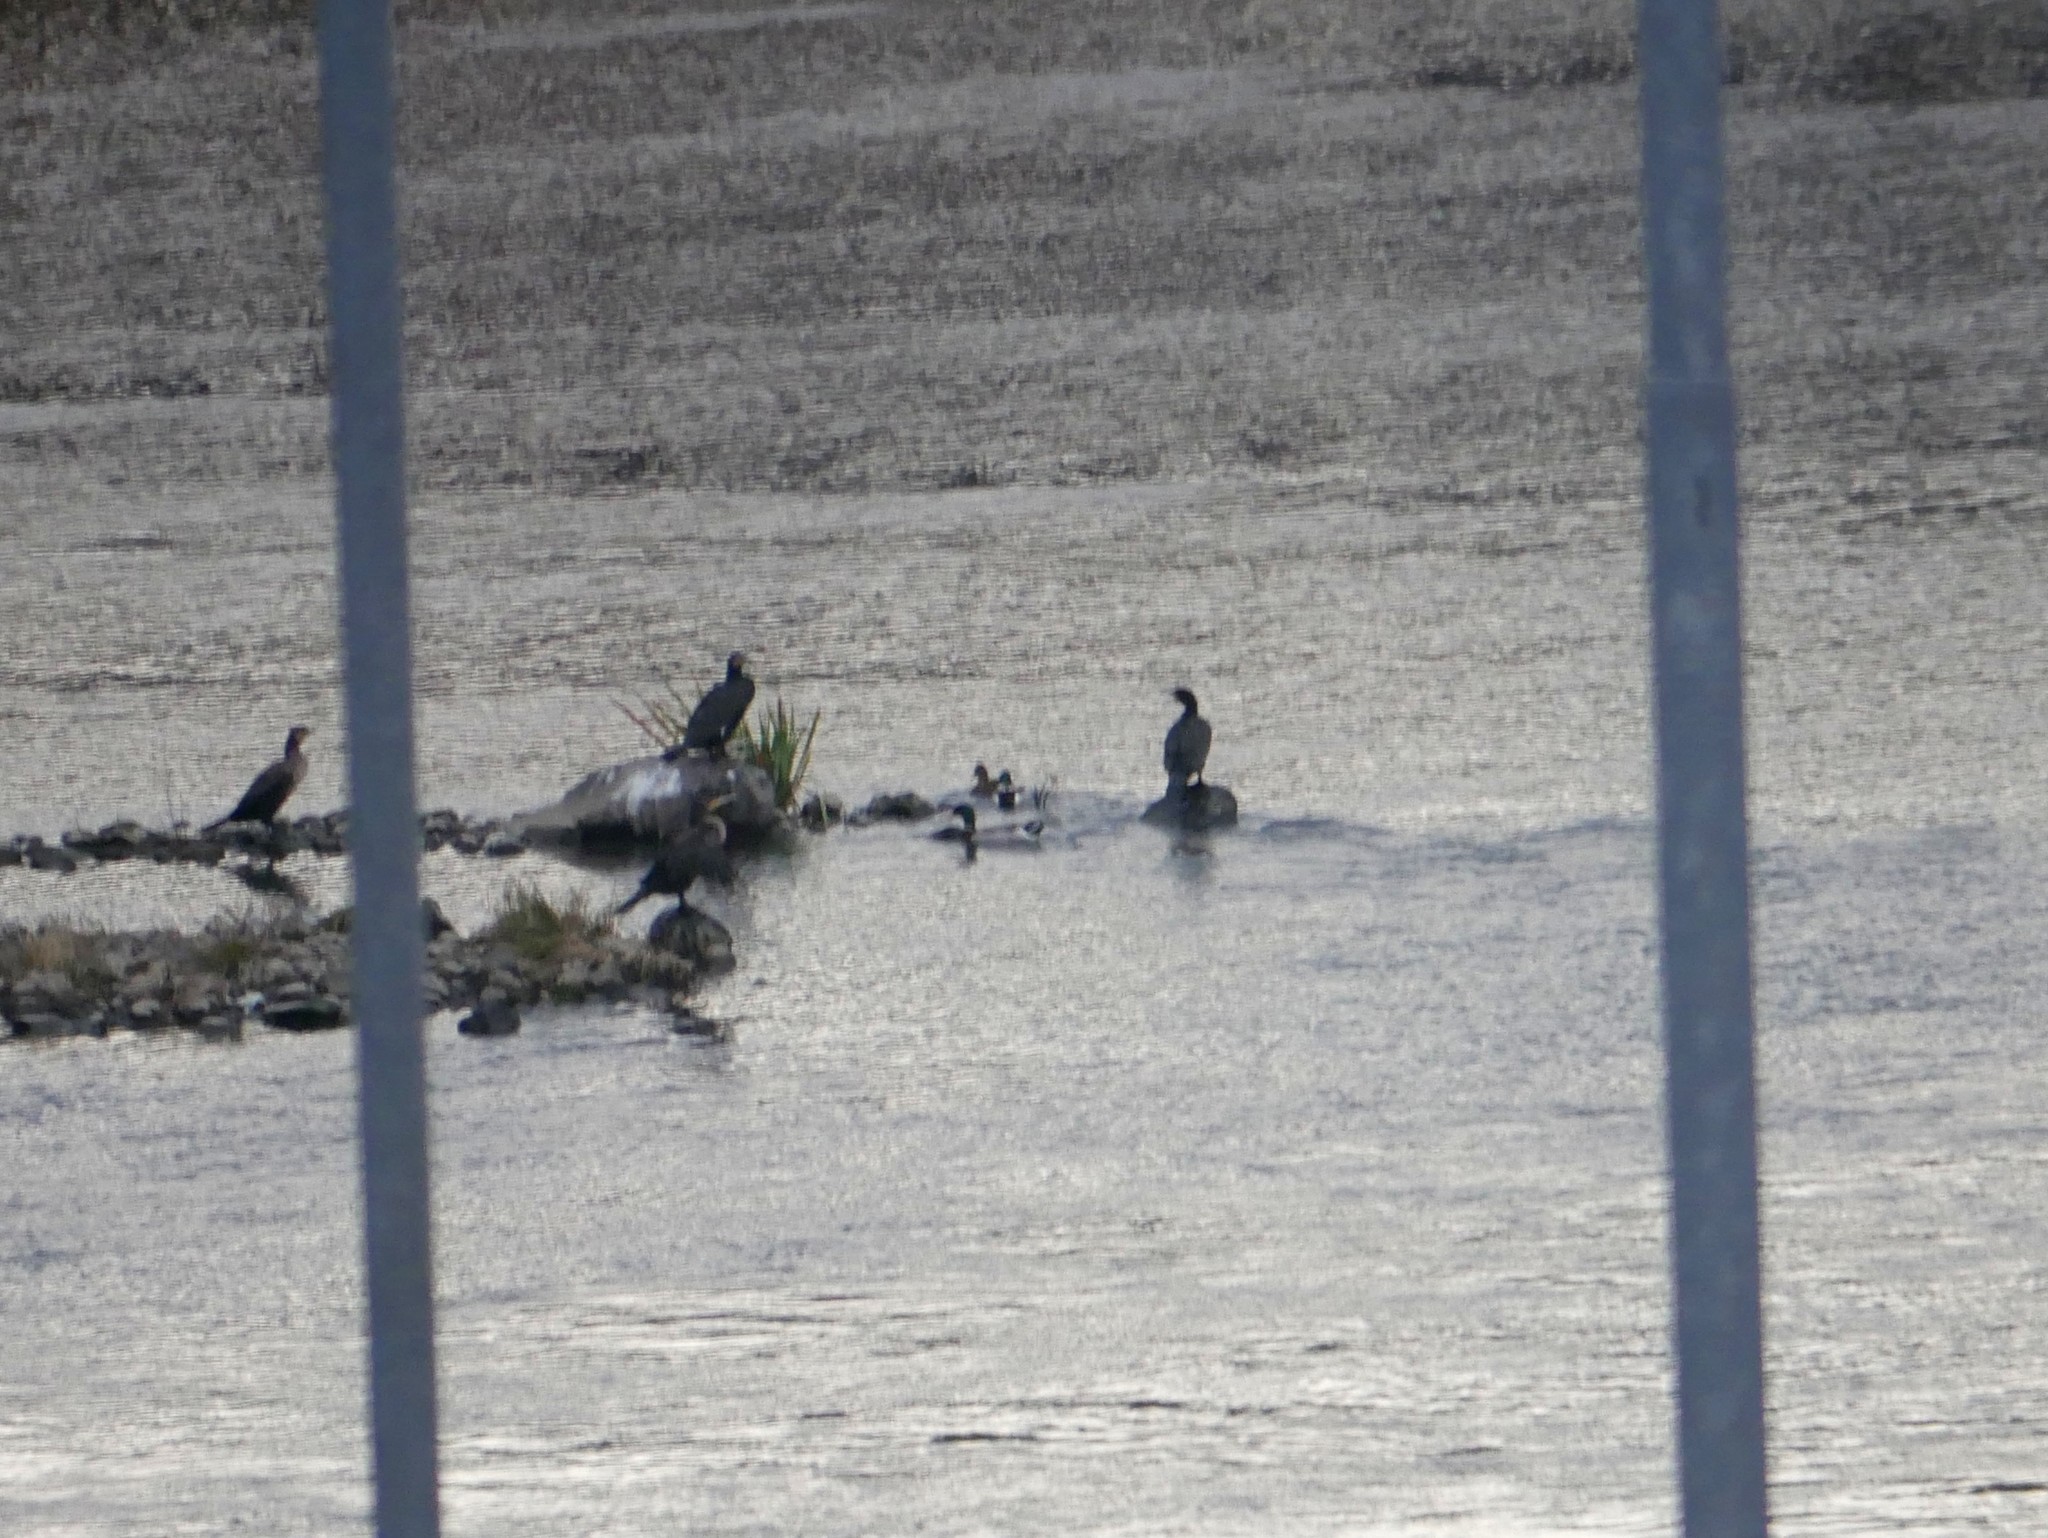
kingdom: Animalia
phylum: Chordata
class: Aves
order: Suliformes
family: Phalacrocoracidae
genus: Phalacrocorax
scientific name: Phalacrocorax carbo
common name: Great cormorant
